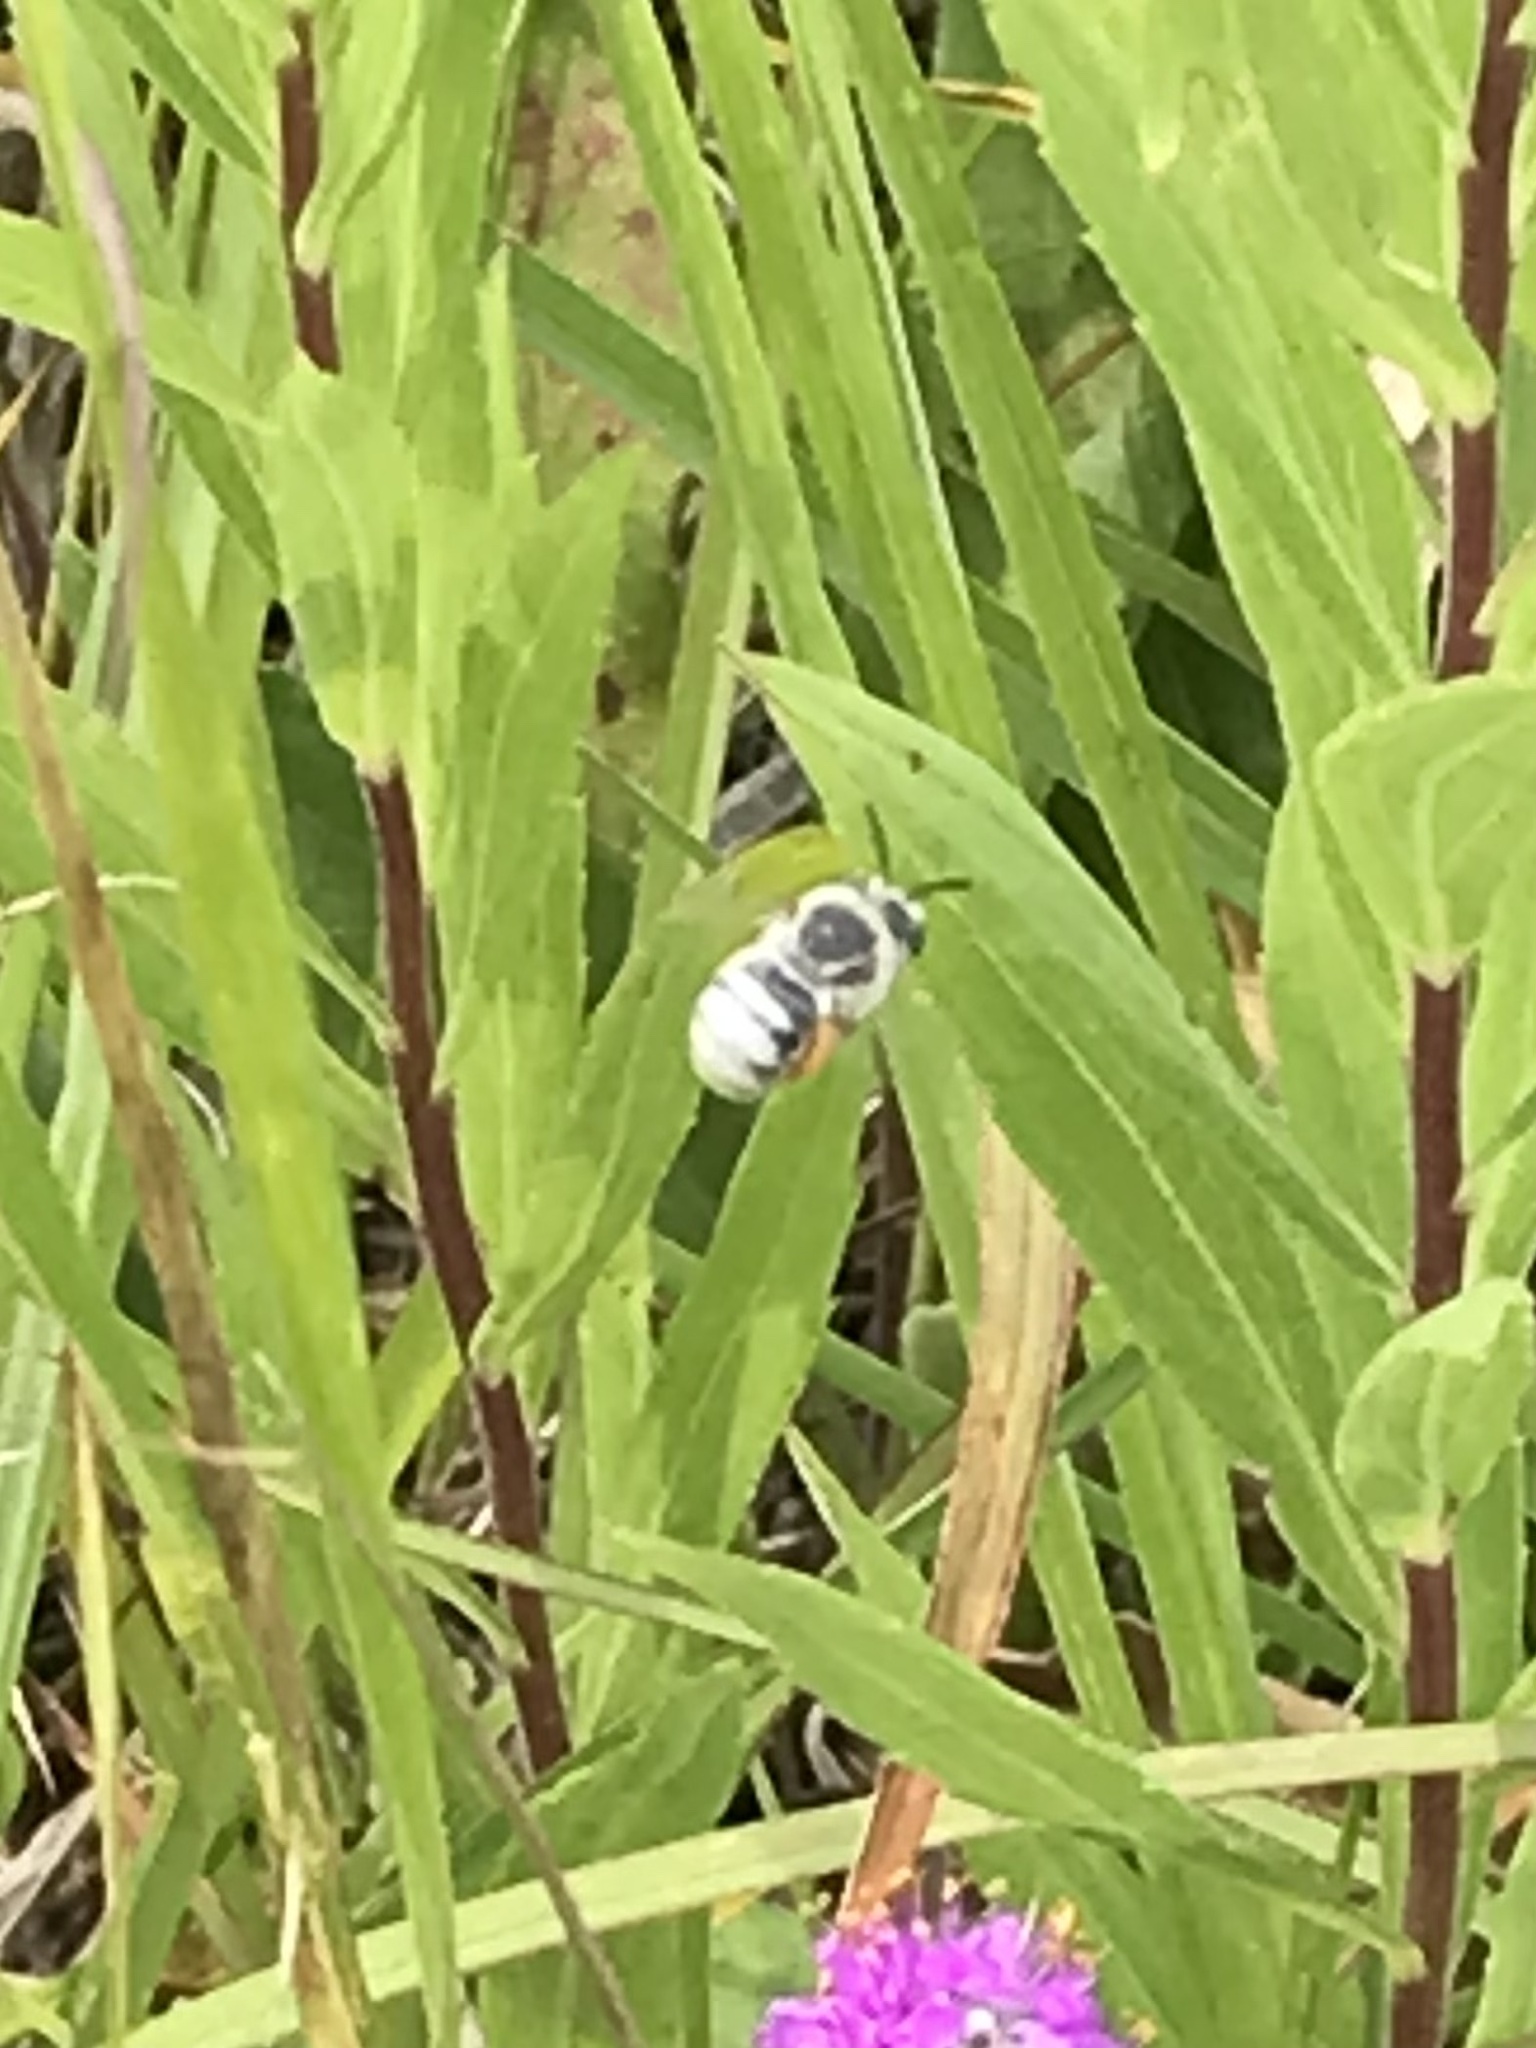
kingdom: Animalia
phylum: Arthropoda
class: Insecta
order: Hymenoptera
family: Apidae
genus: Tetraloniella
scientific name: Tetraloniella albata
